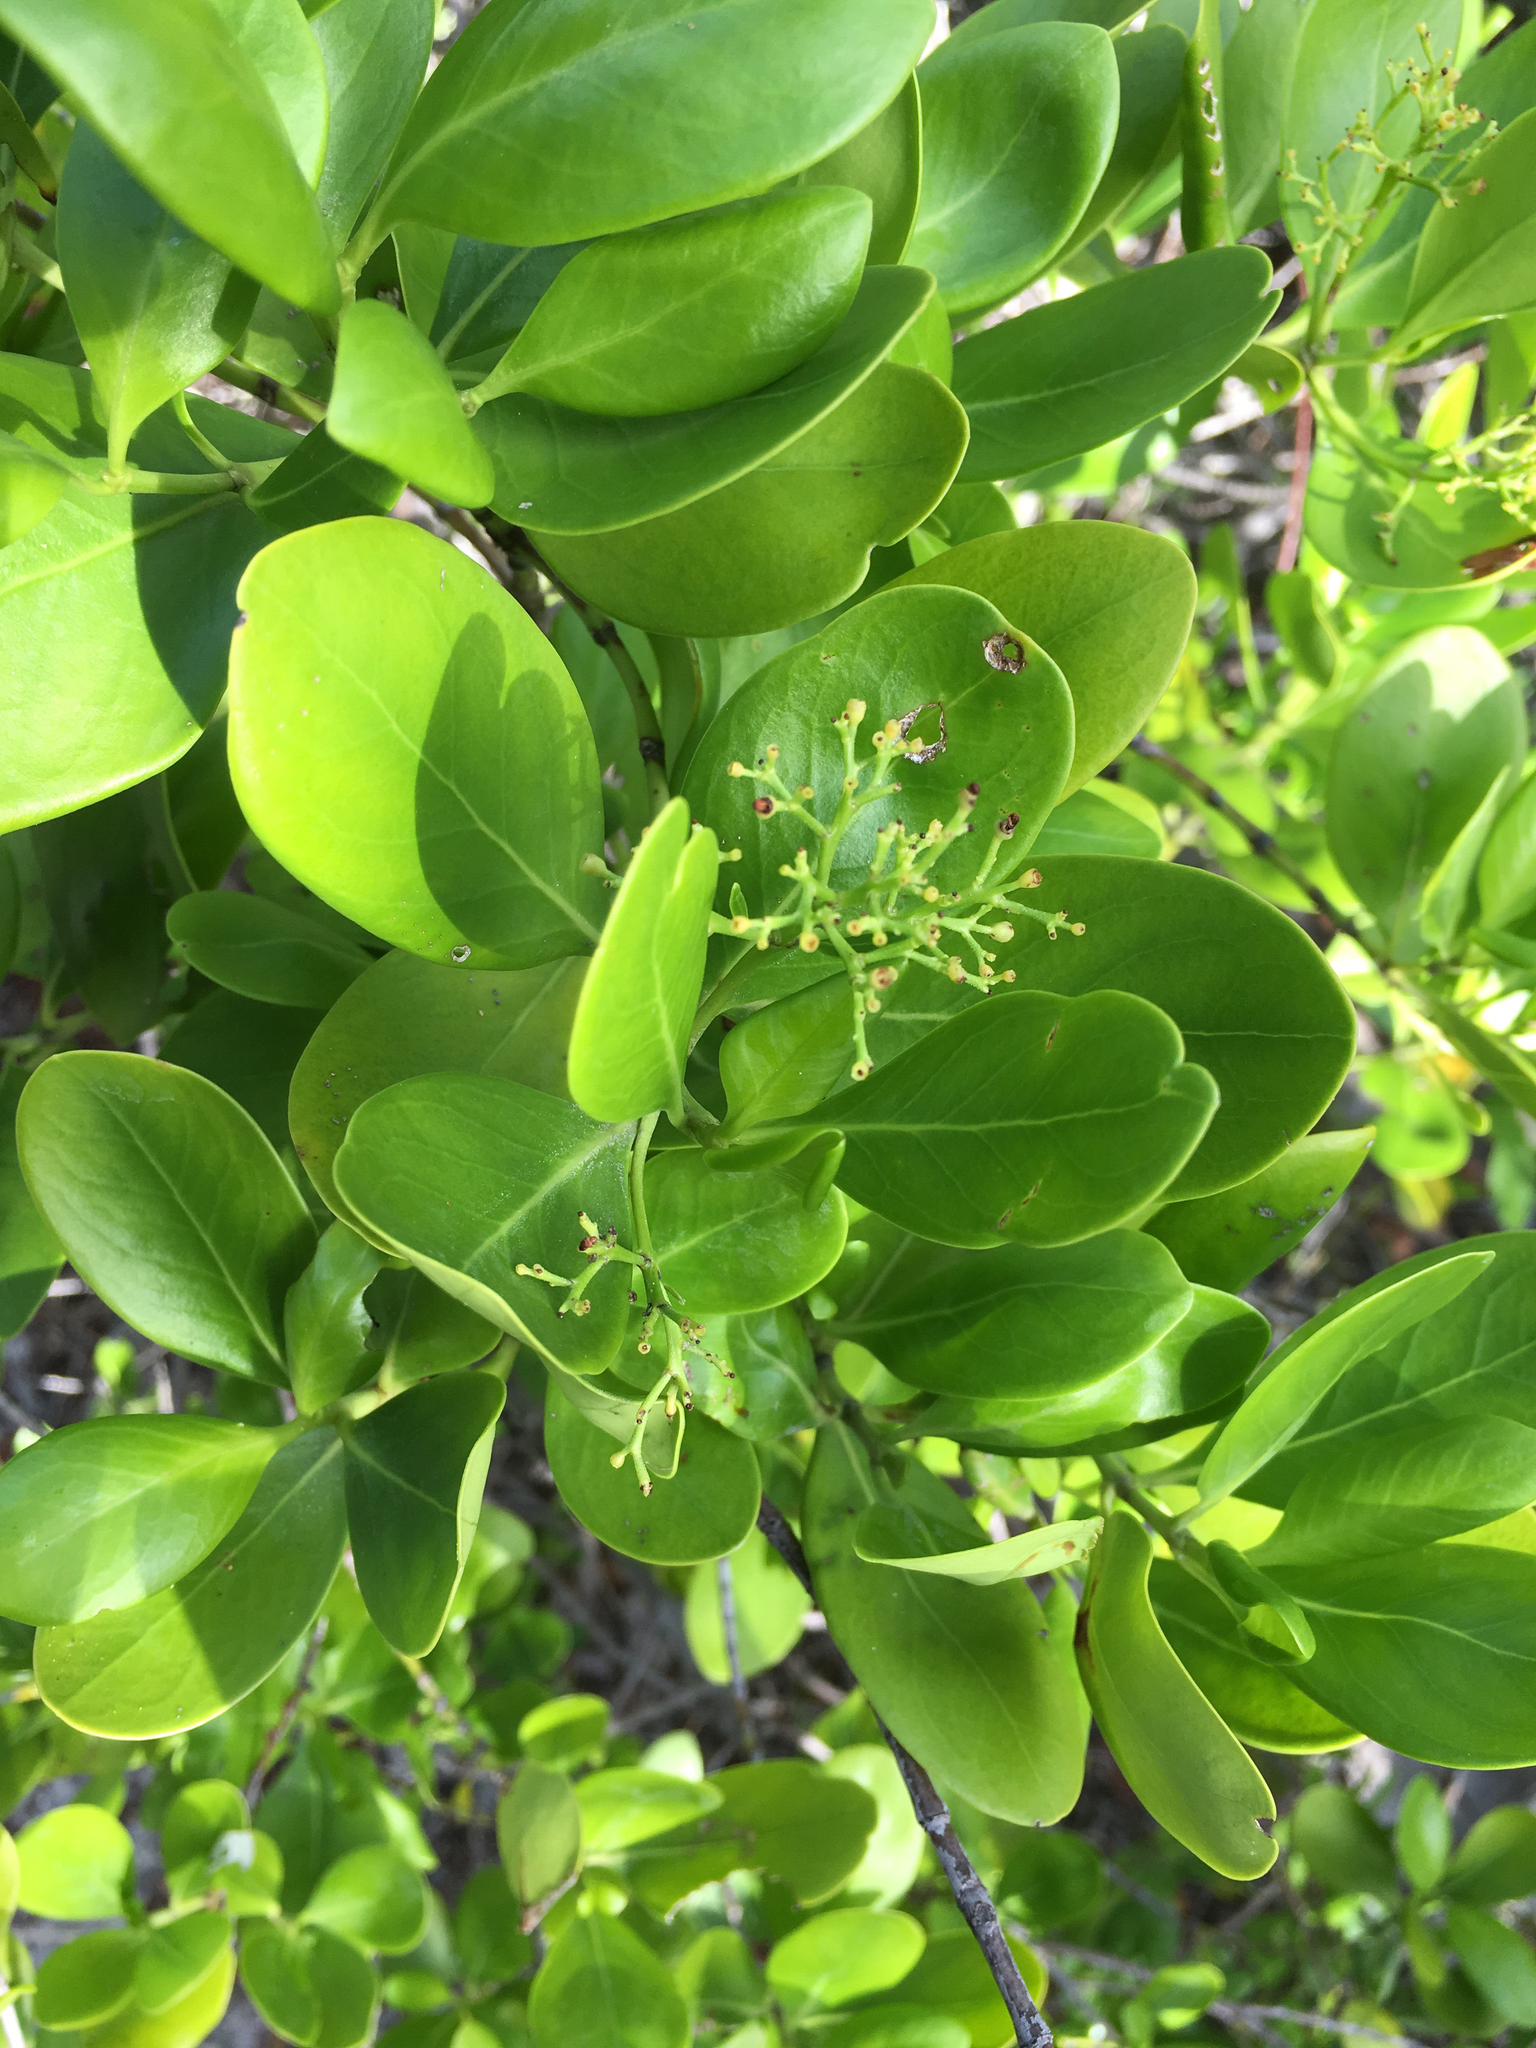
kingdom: Plantae
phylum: Tracheophyta
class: Magnoliopsida
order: Gentianales
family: Rubiaceae
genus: Erithalis
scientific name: Erithalis fruticosa
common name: Candlewood
